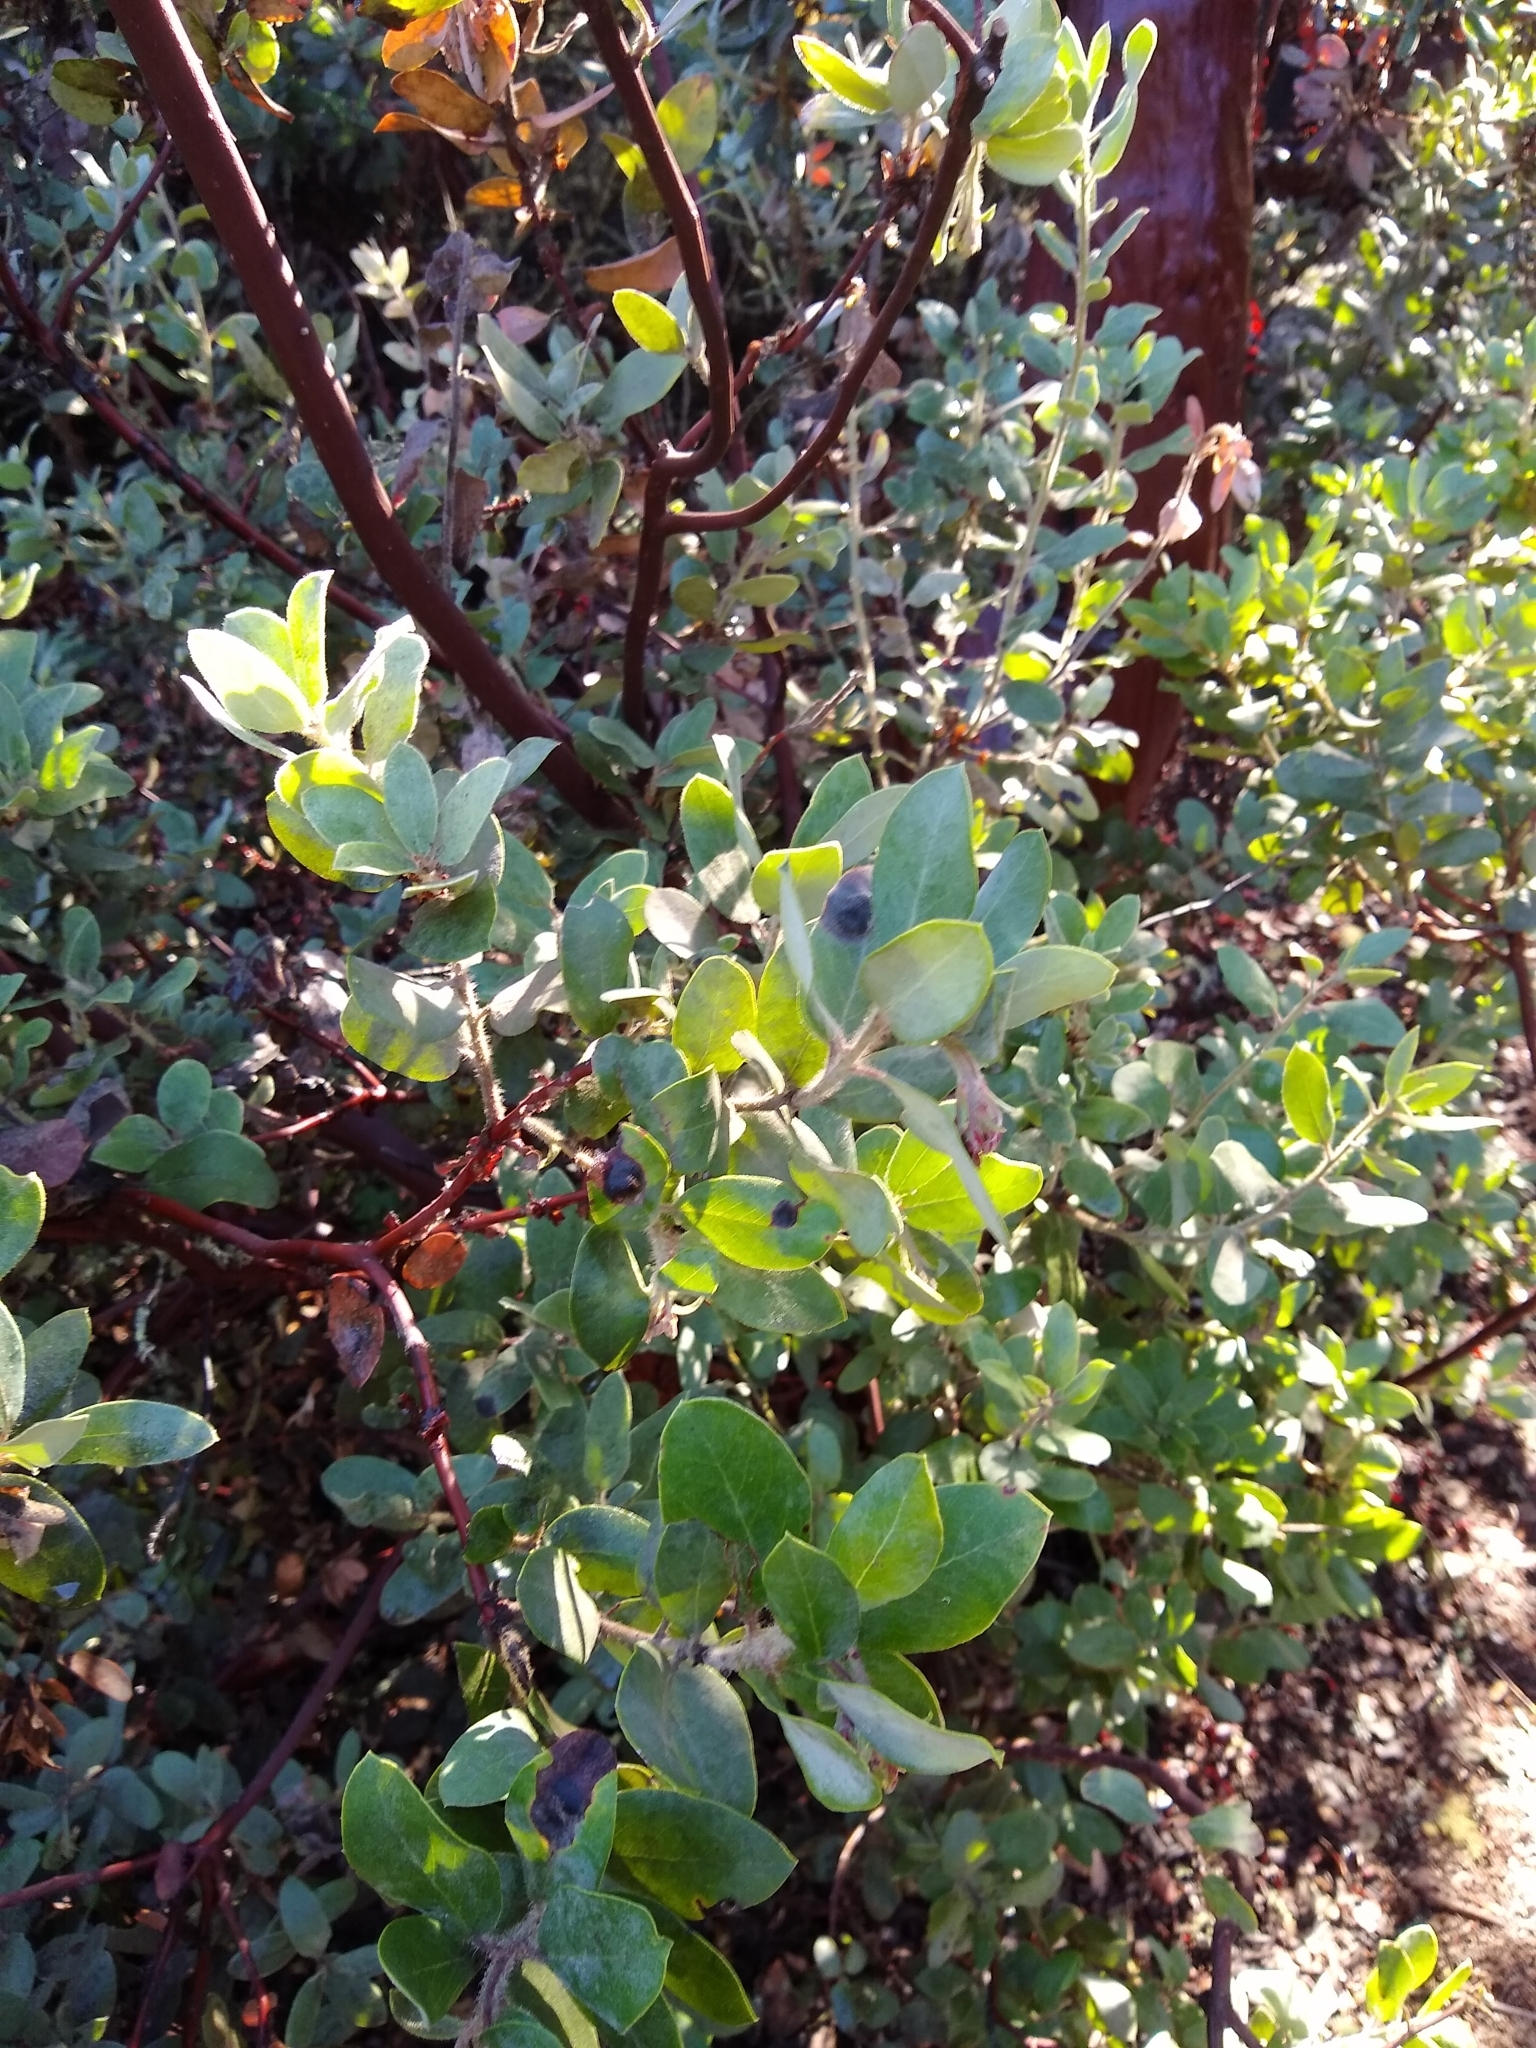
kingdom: Fungi
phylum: Basidiomycota
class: Exobasidiomycetes
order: Exobasidiales
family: Exobasidiaceae
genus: Exobasidium
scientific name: Exobasidium arctostaphyli
